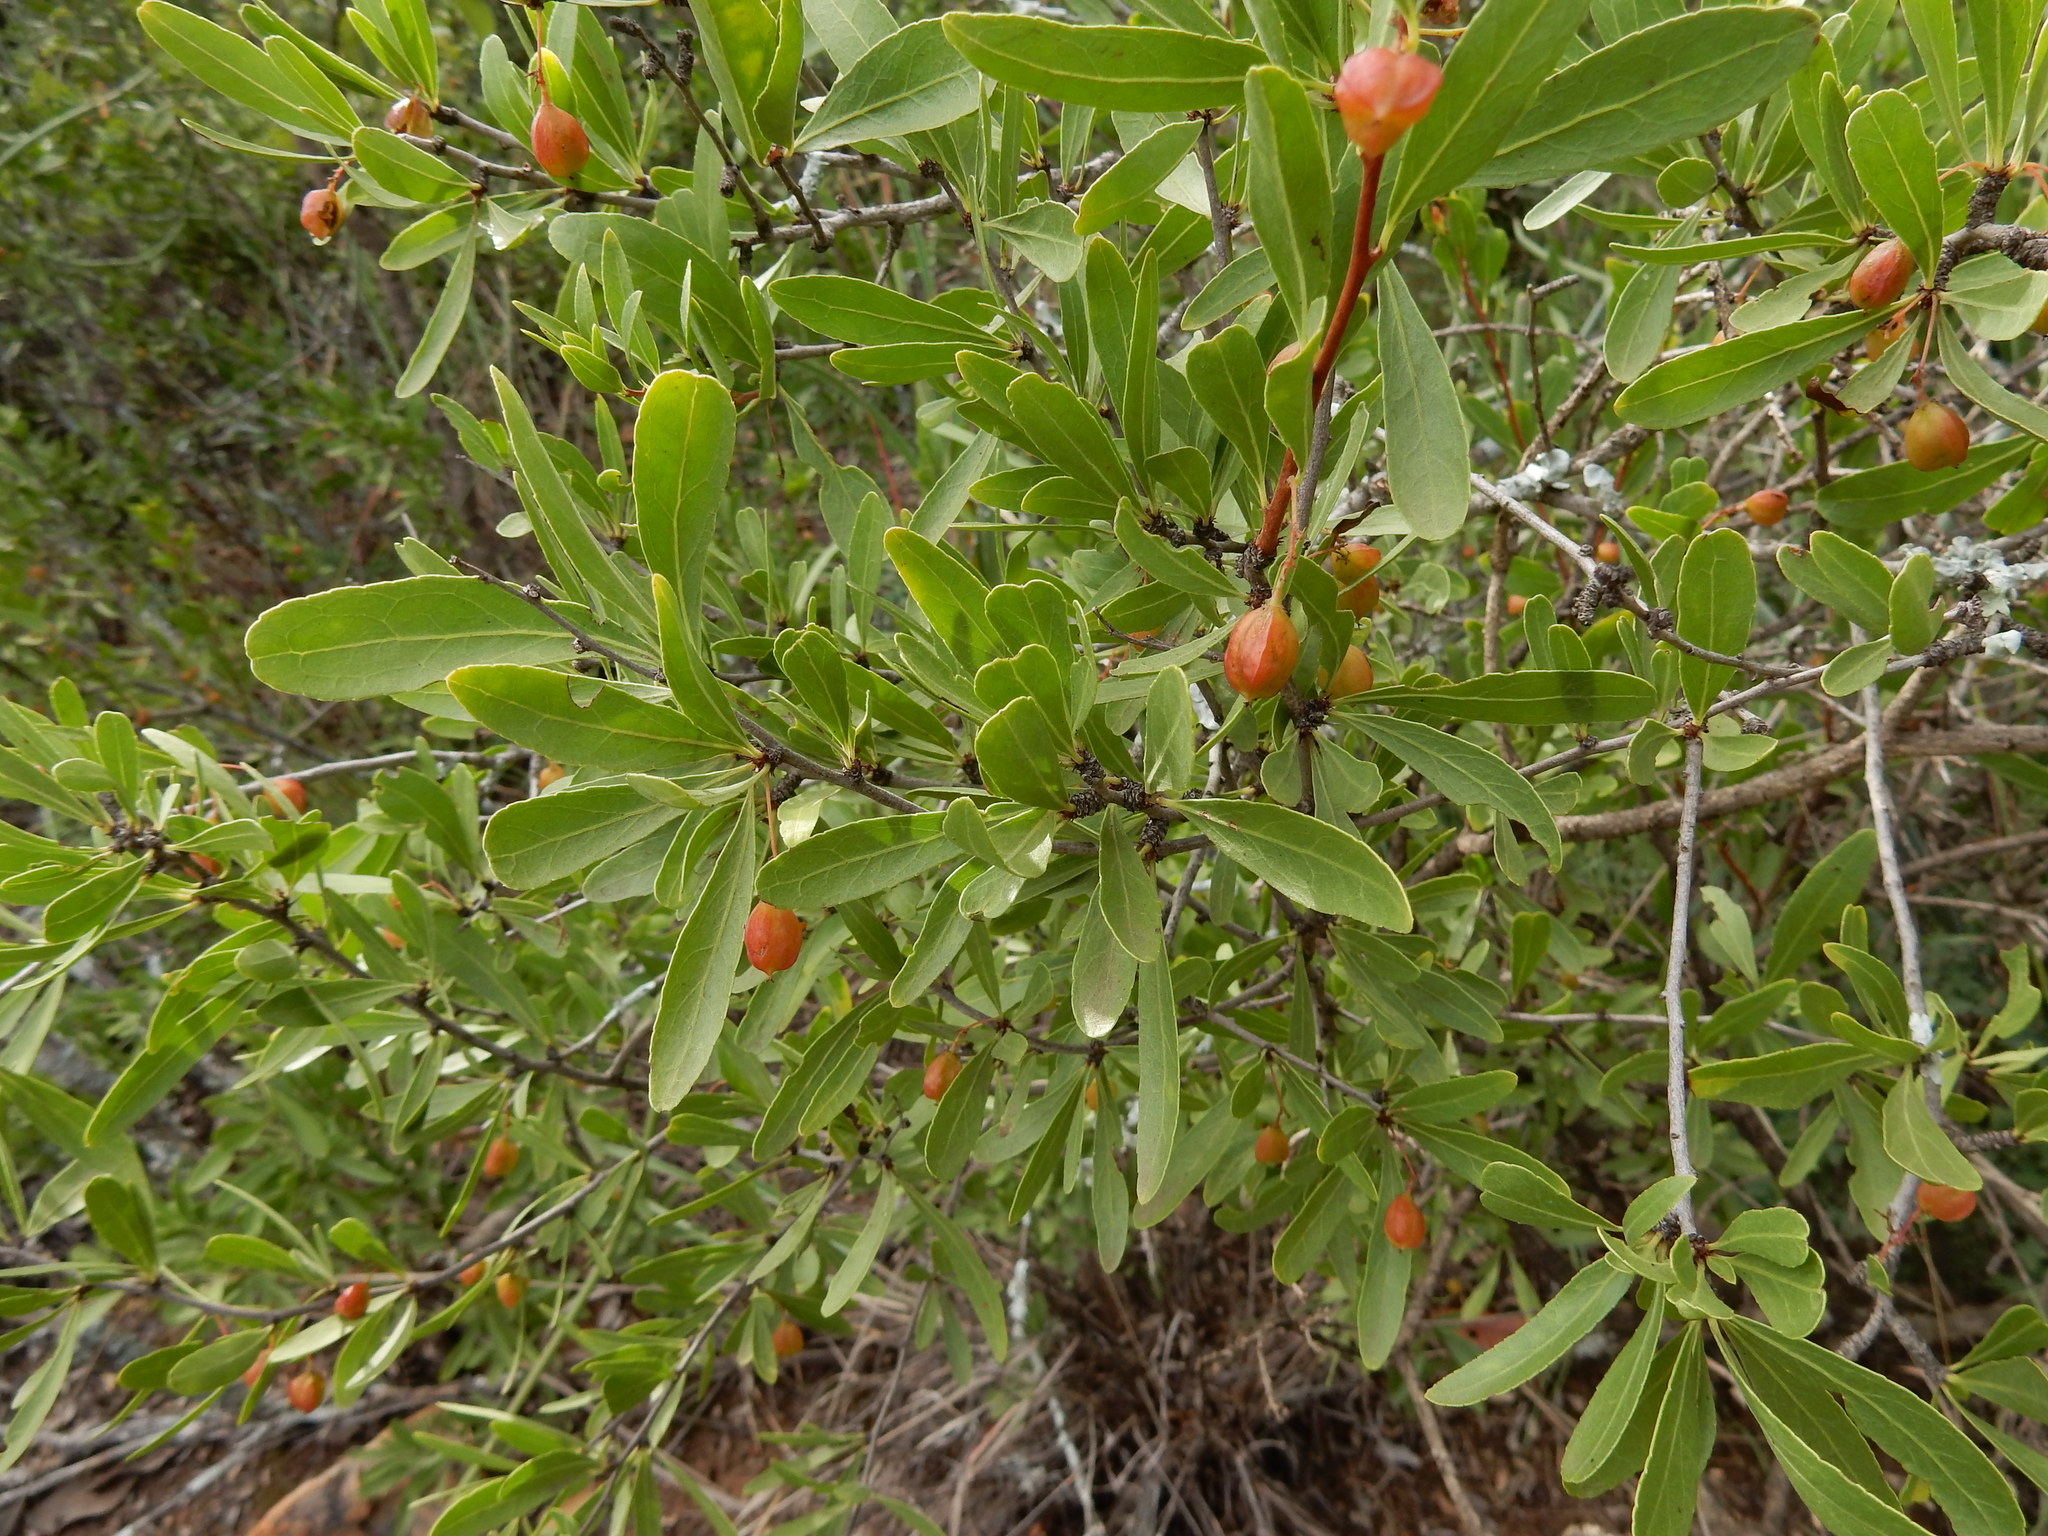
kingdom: Plantae
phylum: Tracheophyta
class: Magnoliopsida
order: Celastrales
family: Celastraceae
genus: Gymnosporia
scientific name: Gymnosporia tenuispina
